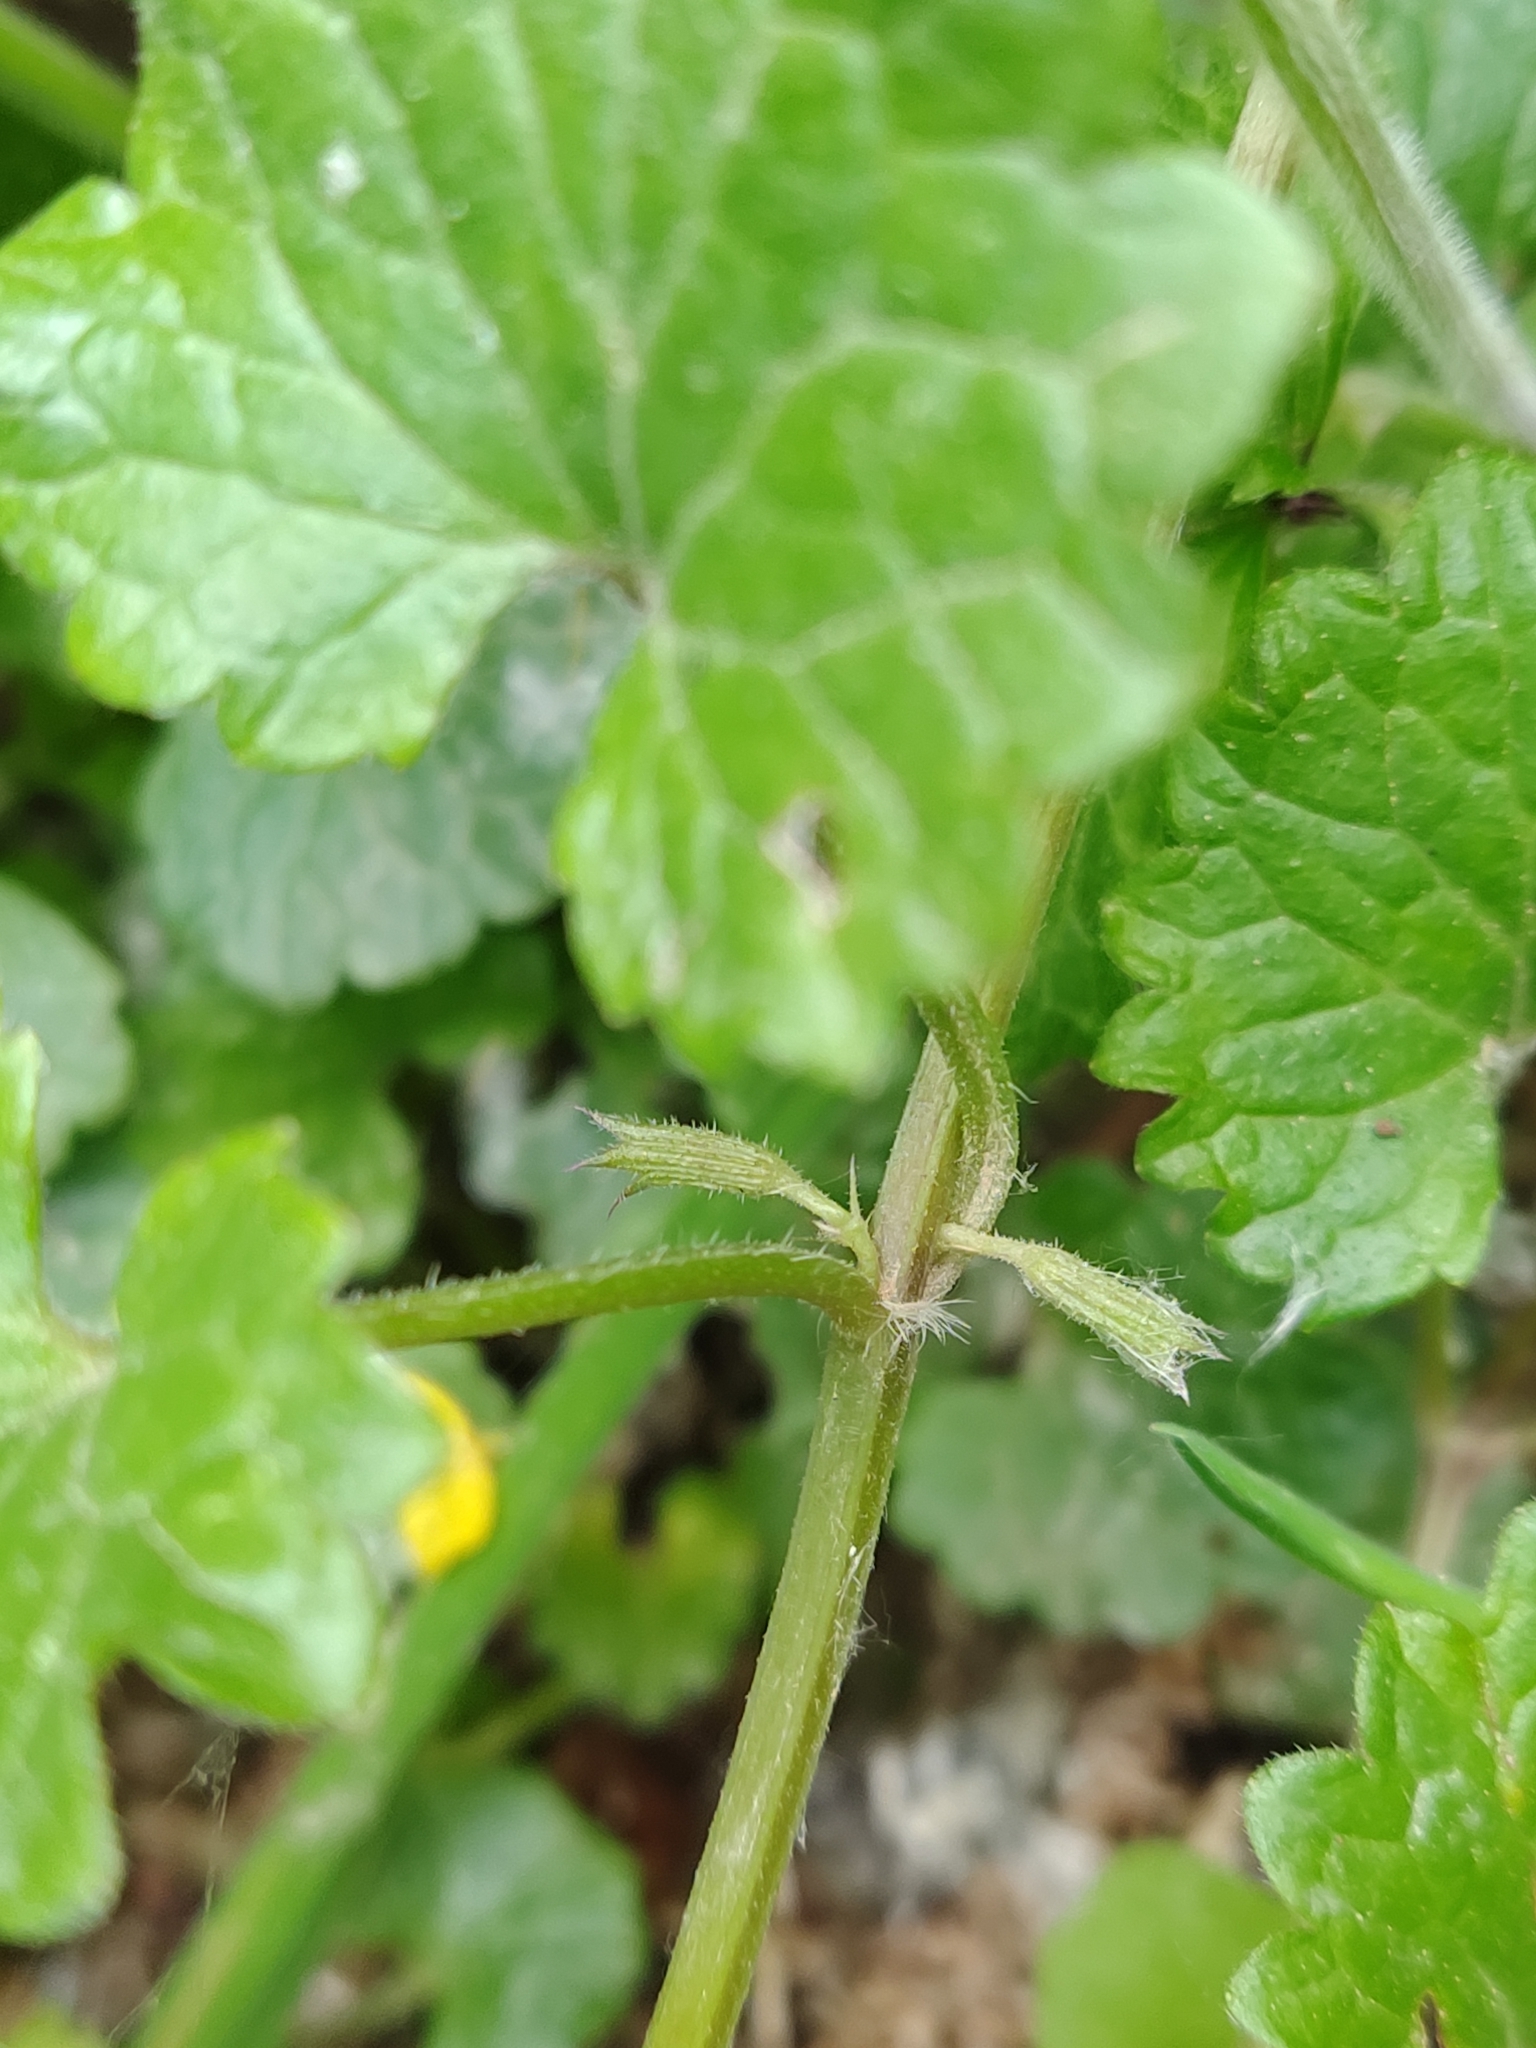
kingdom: Plantae
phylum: Tracheophyta
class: Magnoliopsida
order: Lamiales
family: Lamiaceae
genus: Glechoma
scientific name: Glechoma hederacea
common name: Ground ivy
